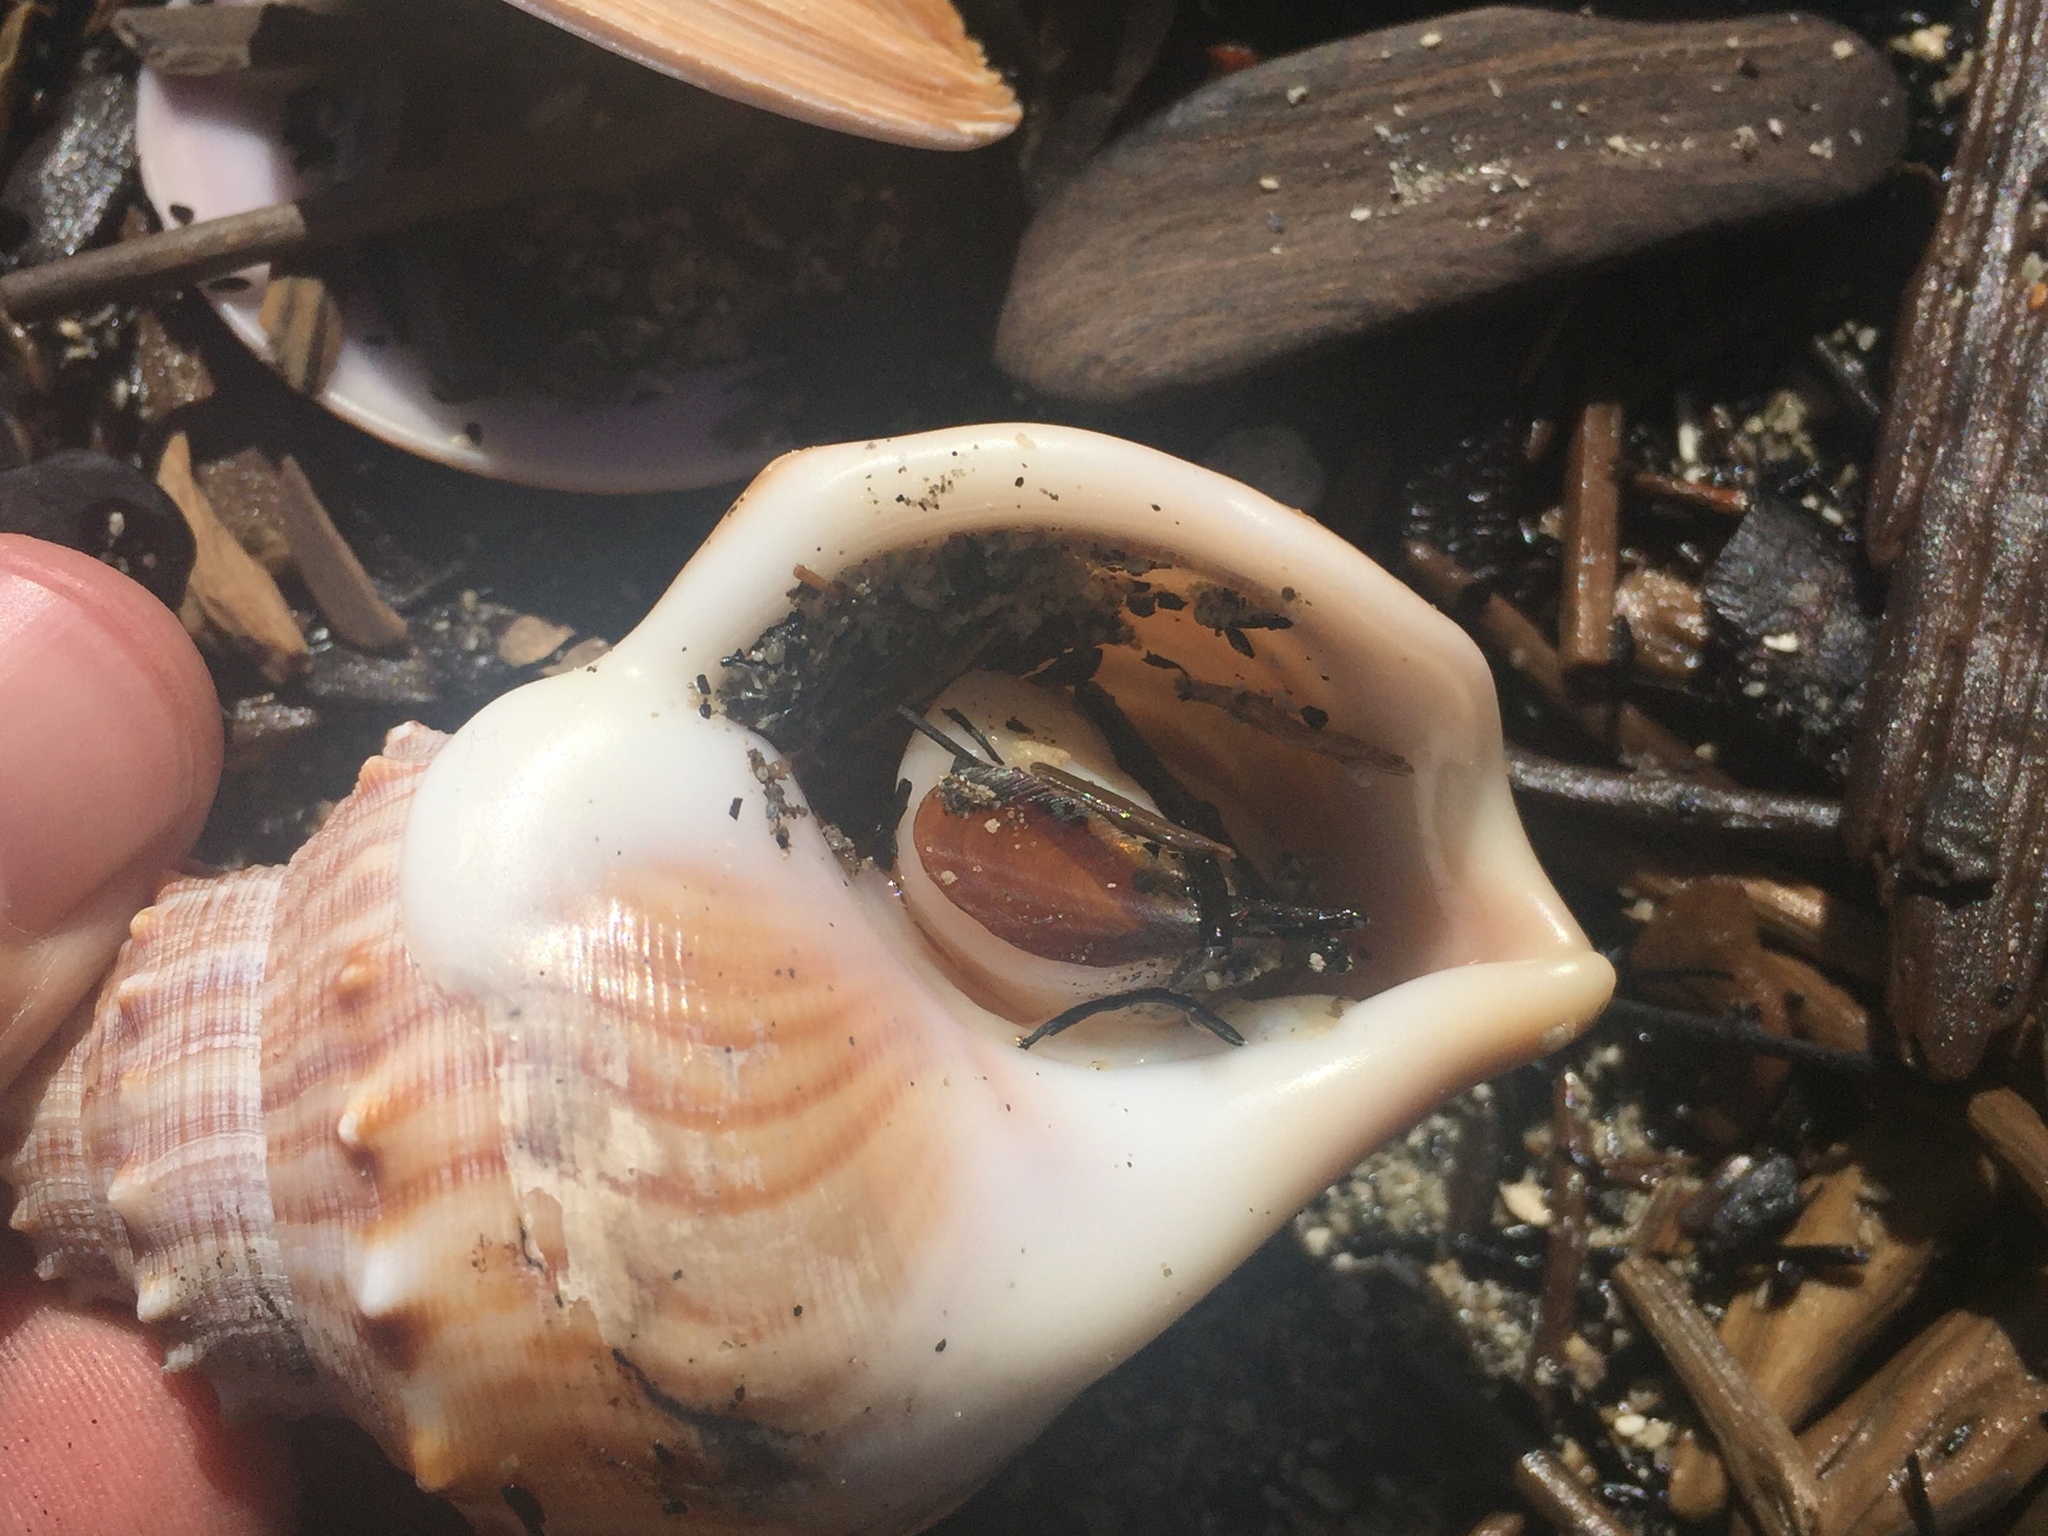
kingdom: Animalia
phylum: Mollusca
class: Gastropoda
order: Littorinimorpha
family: Struthiolariidae
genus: Struthiolaria
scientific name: Struthiolaria papulosa
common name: Large ostrich foot
